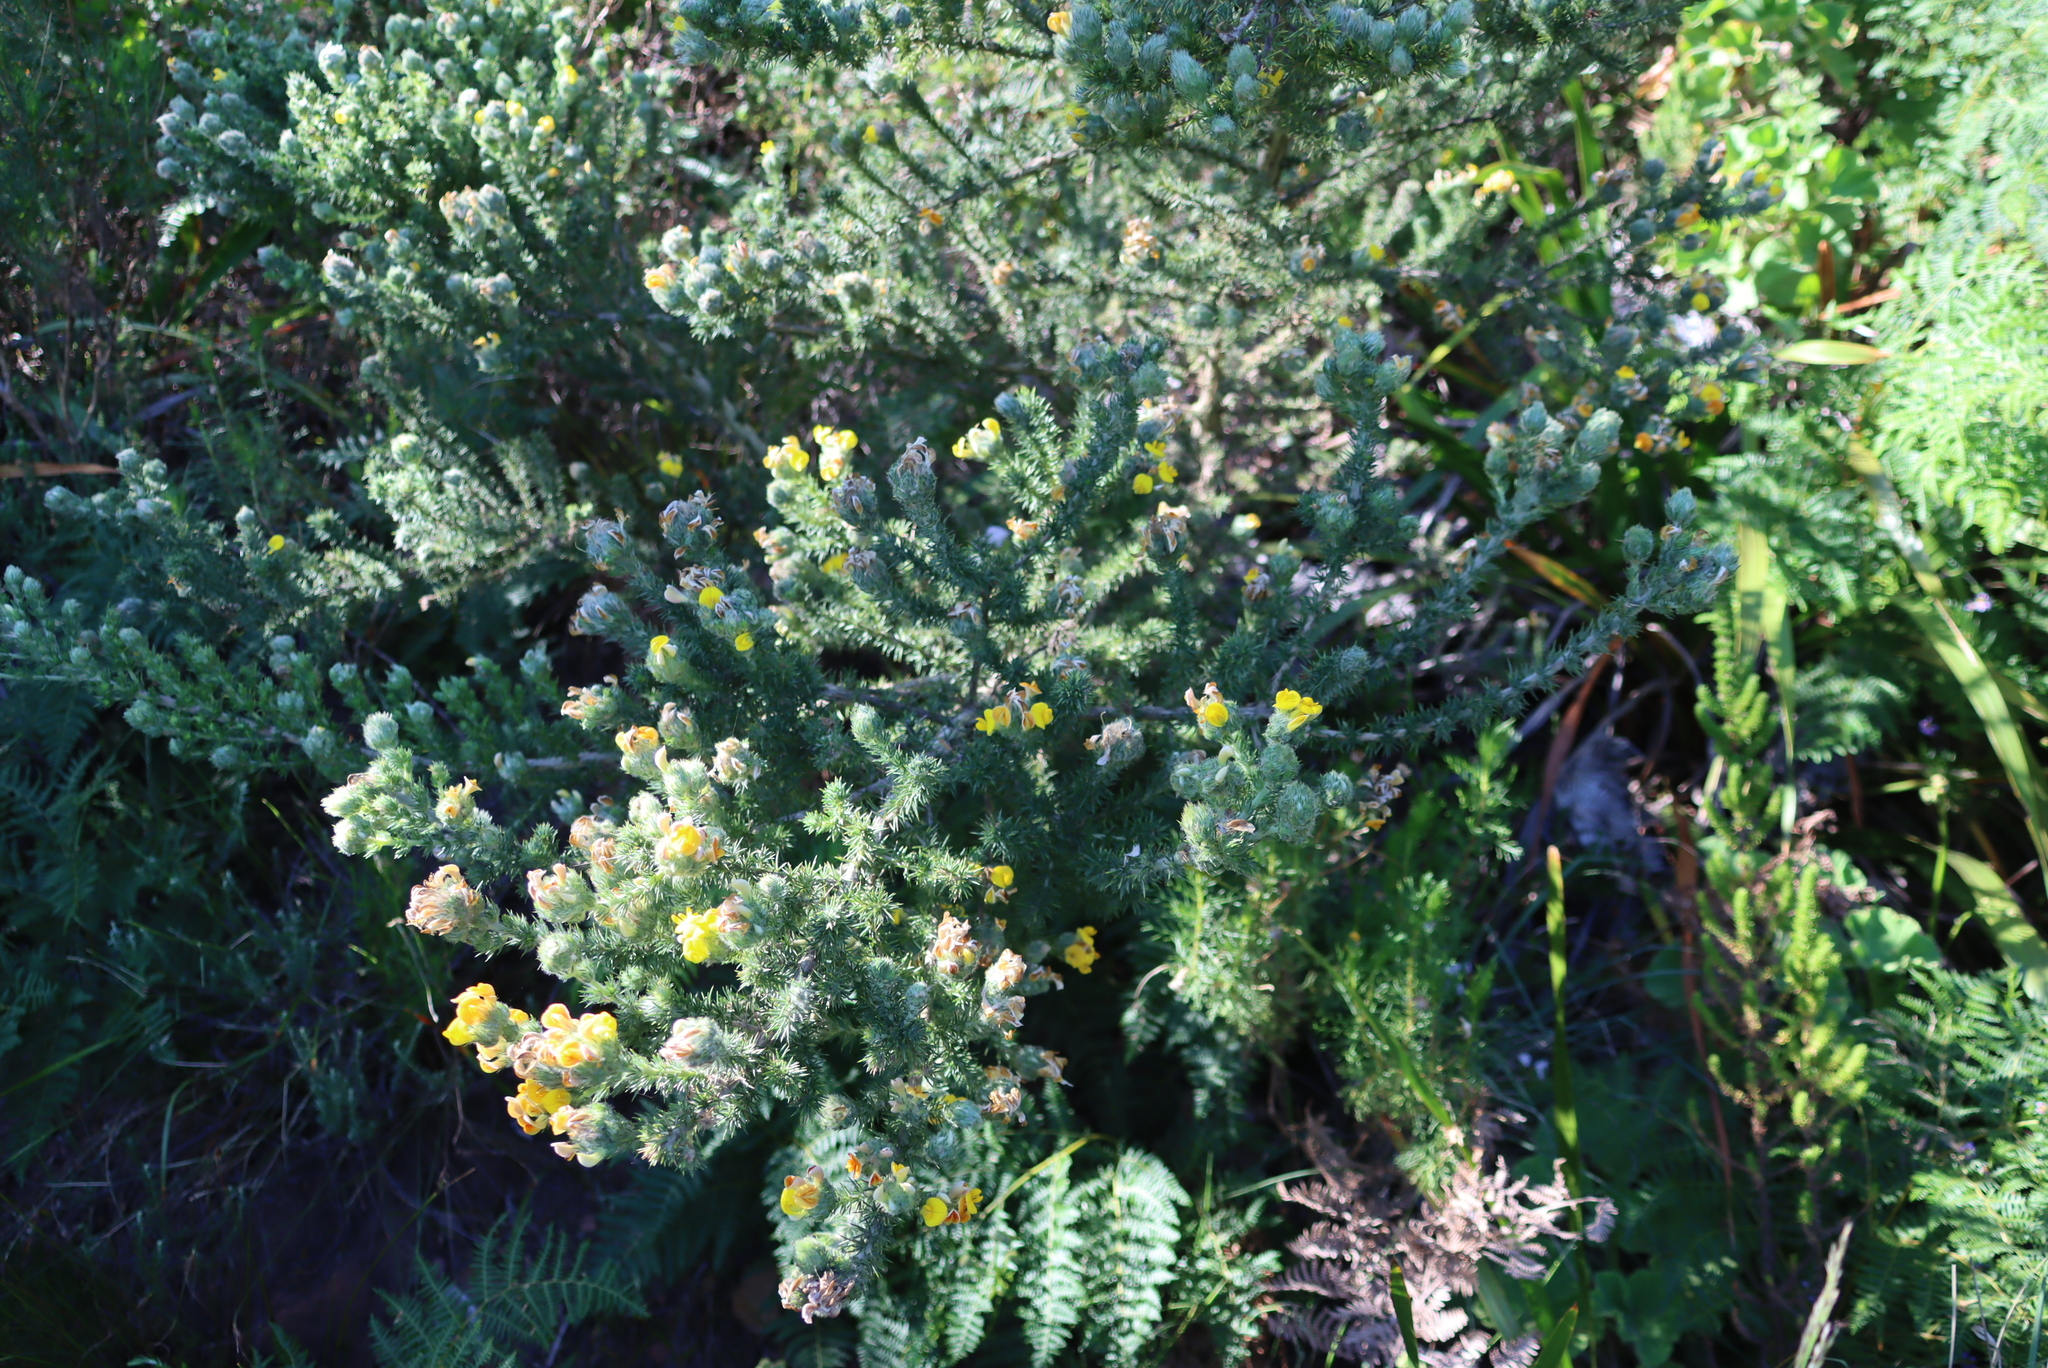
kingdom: Plantae
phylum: Tracheophyta
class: Magnoliopsida
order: Fabales
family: Fabaceae
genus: Aspalathus
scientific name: Aspalathus chenopoda
